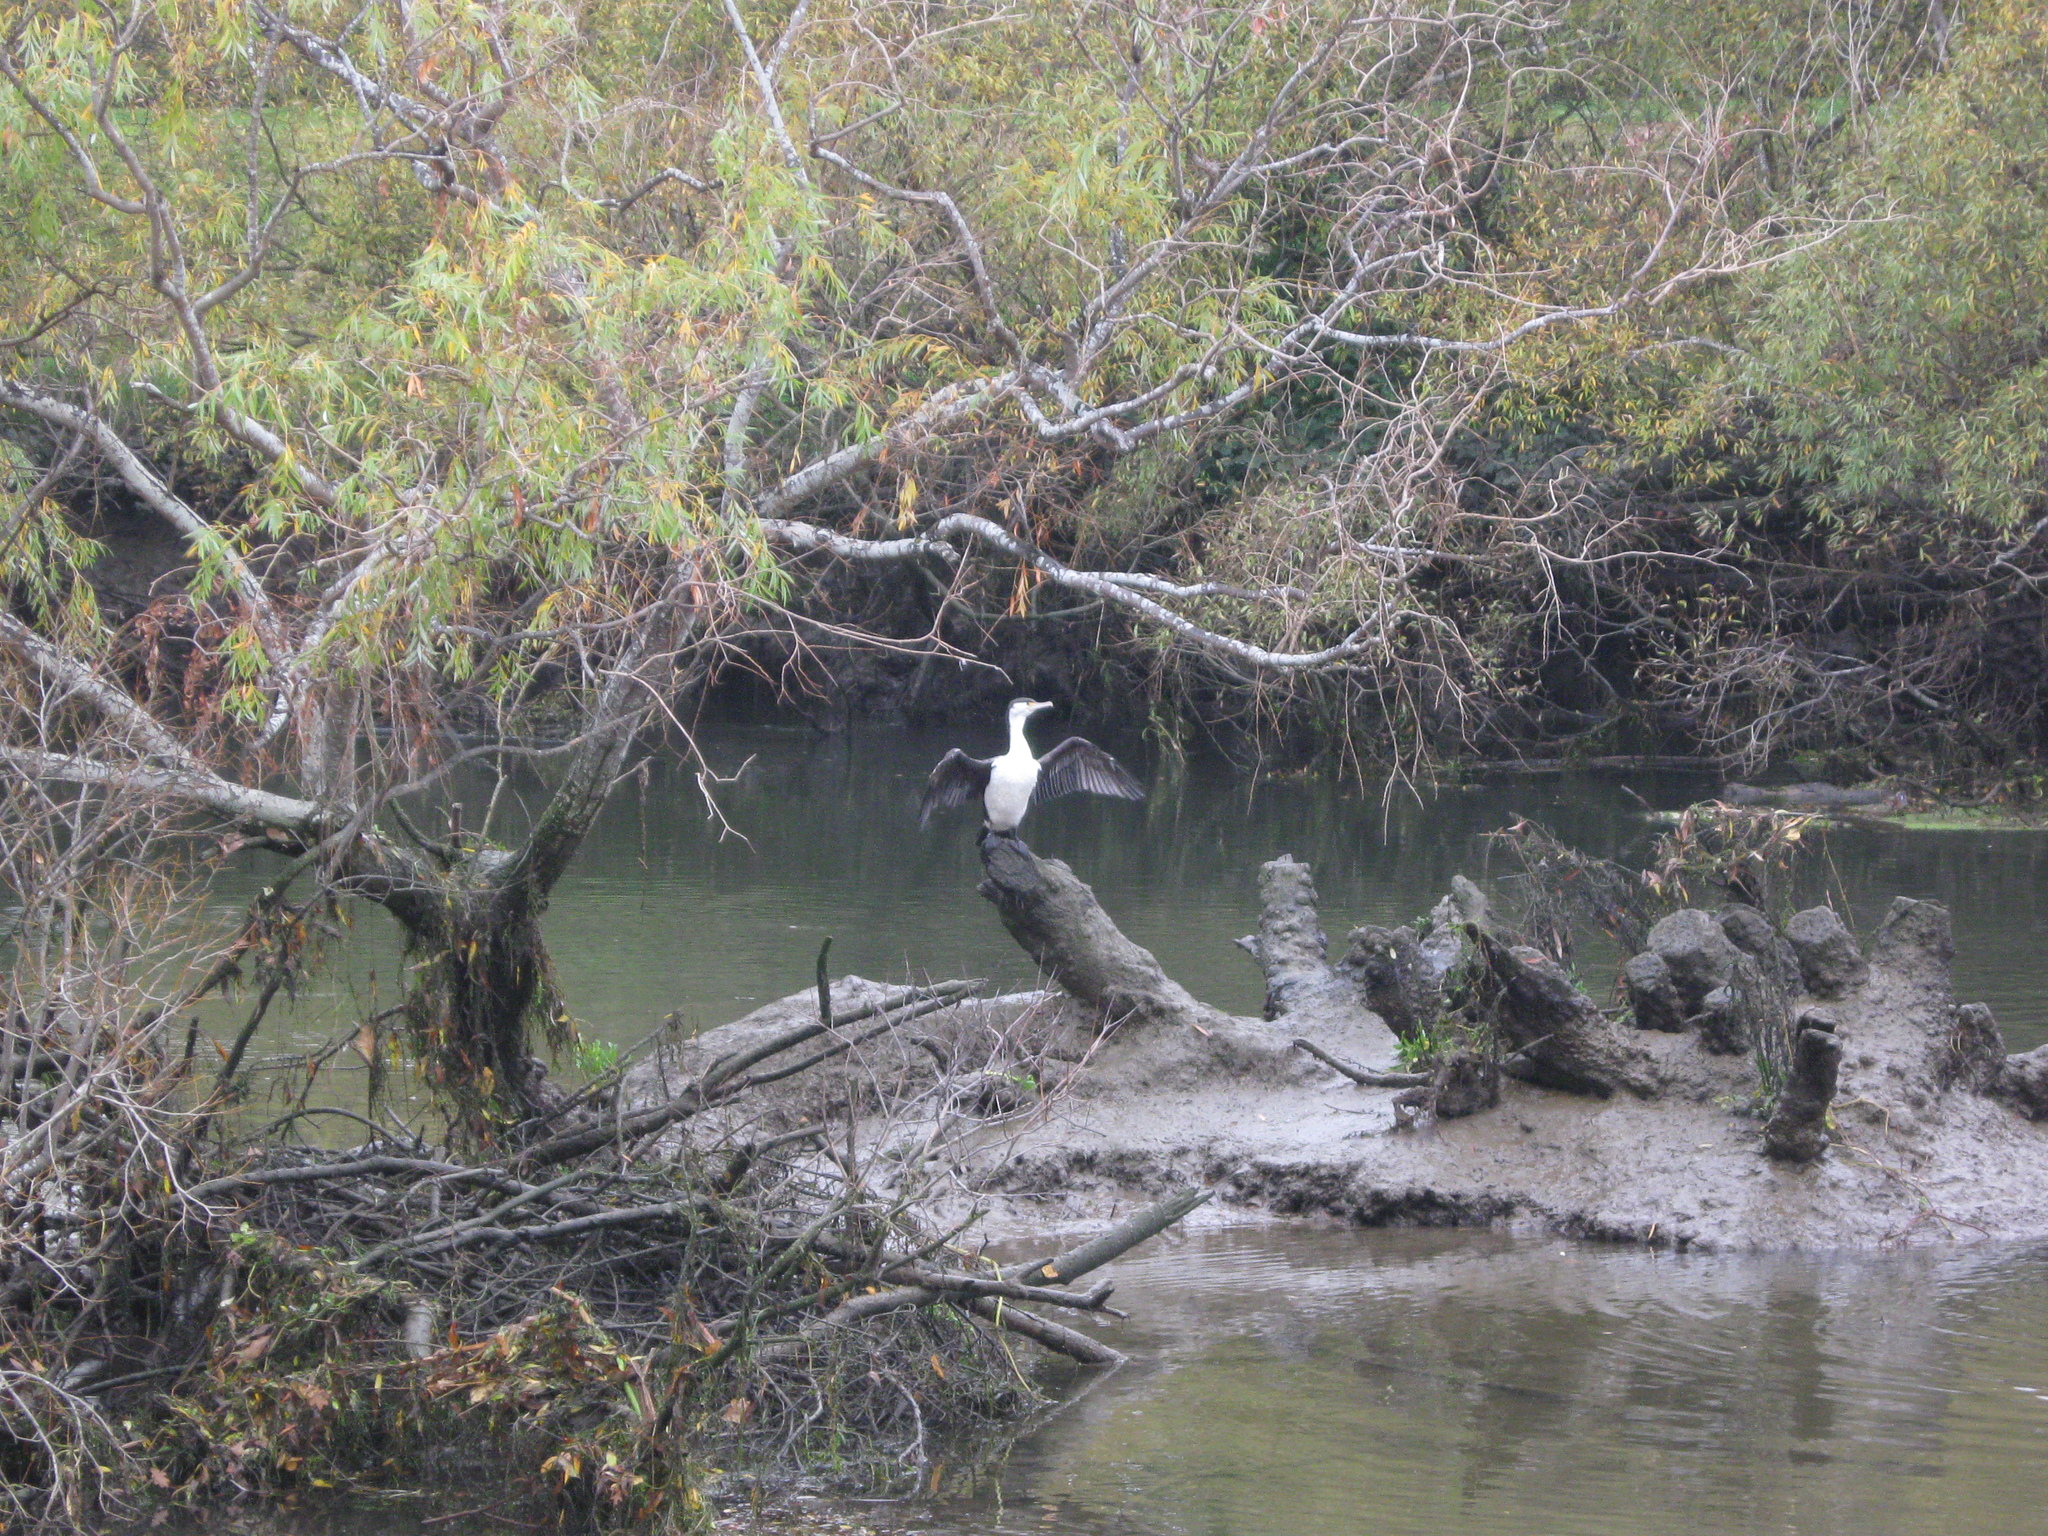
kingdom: Animalia
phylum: Chordata
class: Aves
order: Suliformes
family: Phalacrocoracidae
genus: Phalacrocorax
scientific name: Phalacrocorax varius
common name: Pied cormorant
